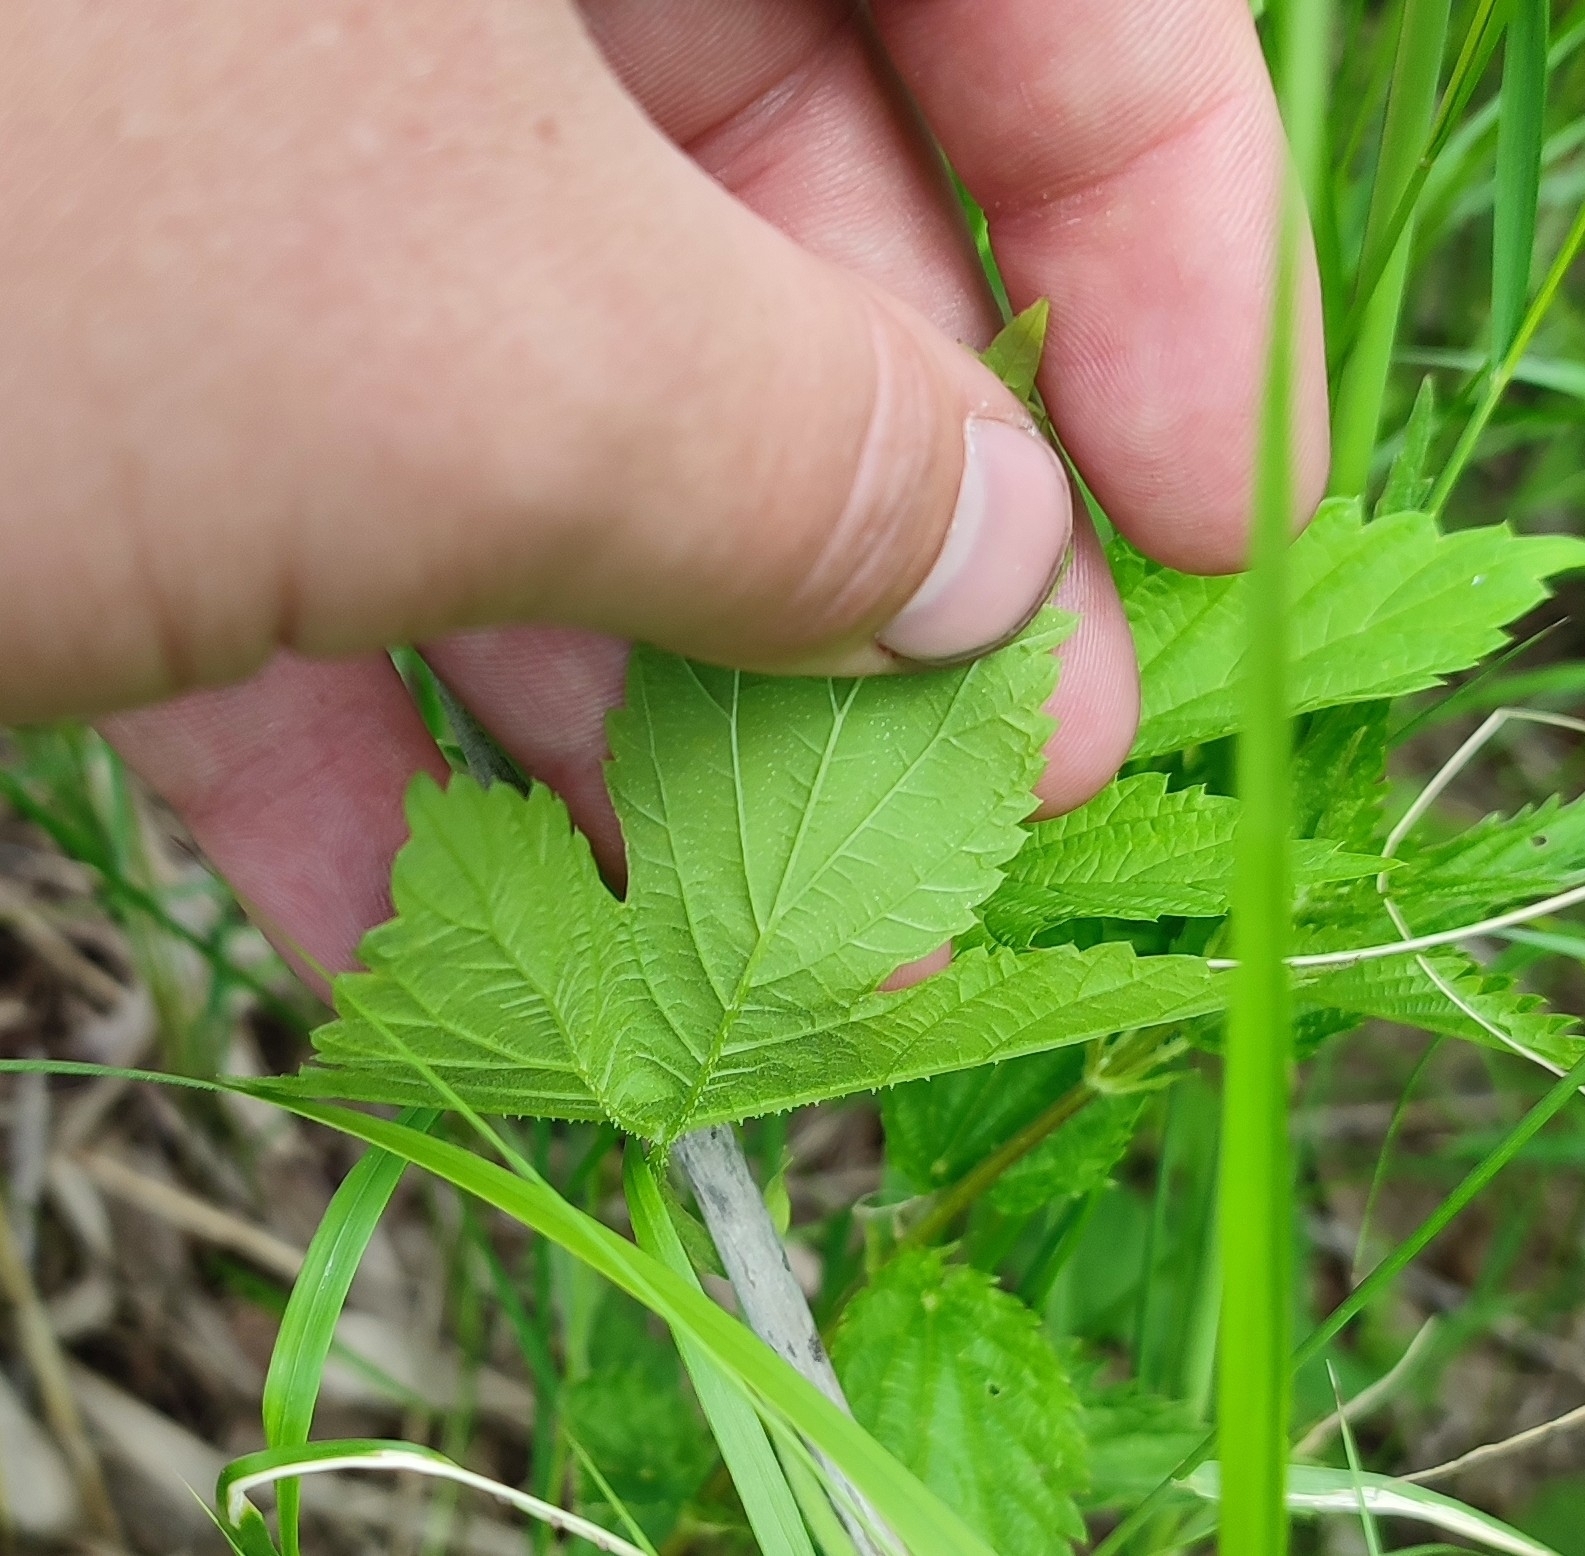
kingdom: Plantae
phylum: Tracheophyta
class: Magnoliopsida
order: Rosales
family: Cannabaceae
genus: Humulus
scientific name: Humulus lupulus
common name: Hop
